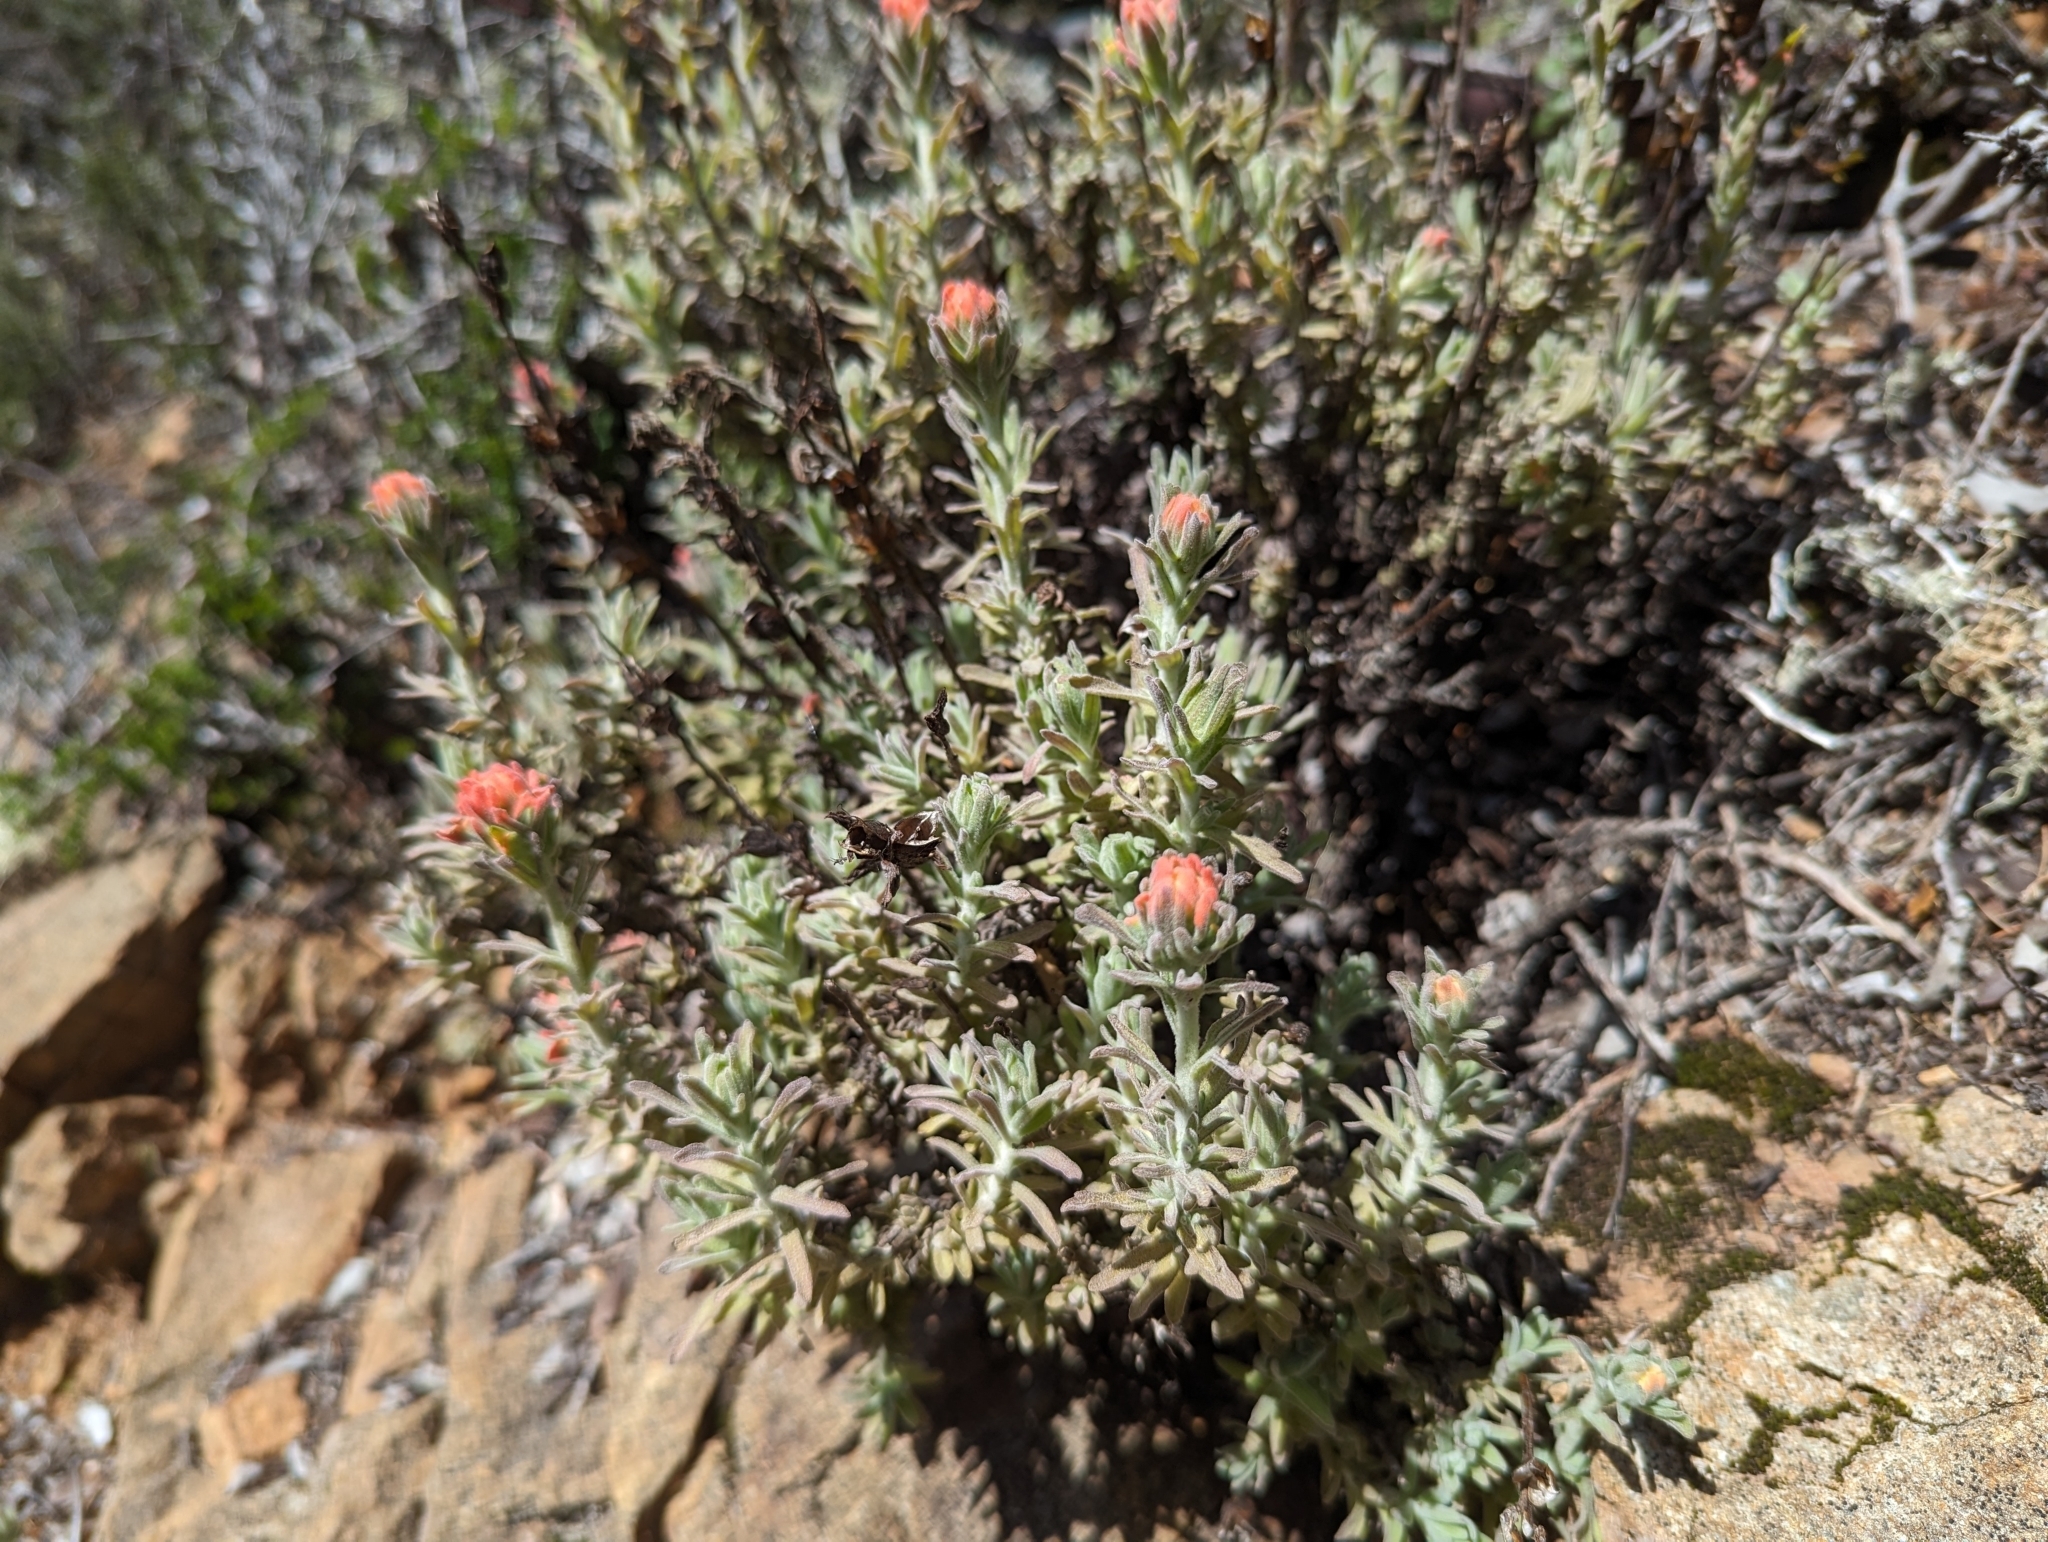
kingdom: Plantae
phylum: Tracheophyta
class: Magnoliopsida
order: Lamiales
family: Orobanchaceae
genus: Castilleja
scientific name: Castilleja foliolosa
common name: Woolly indian paintbrush
